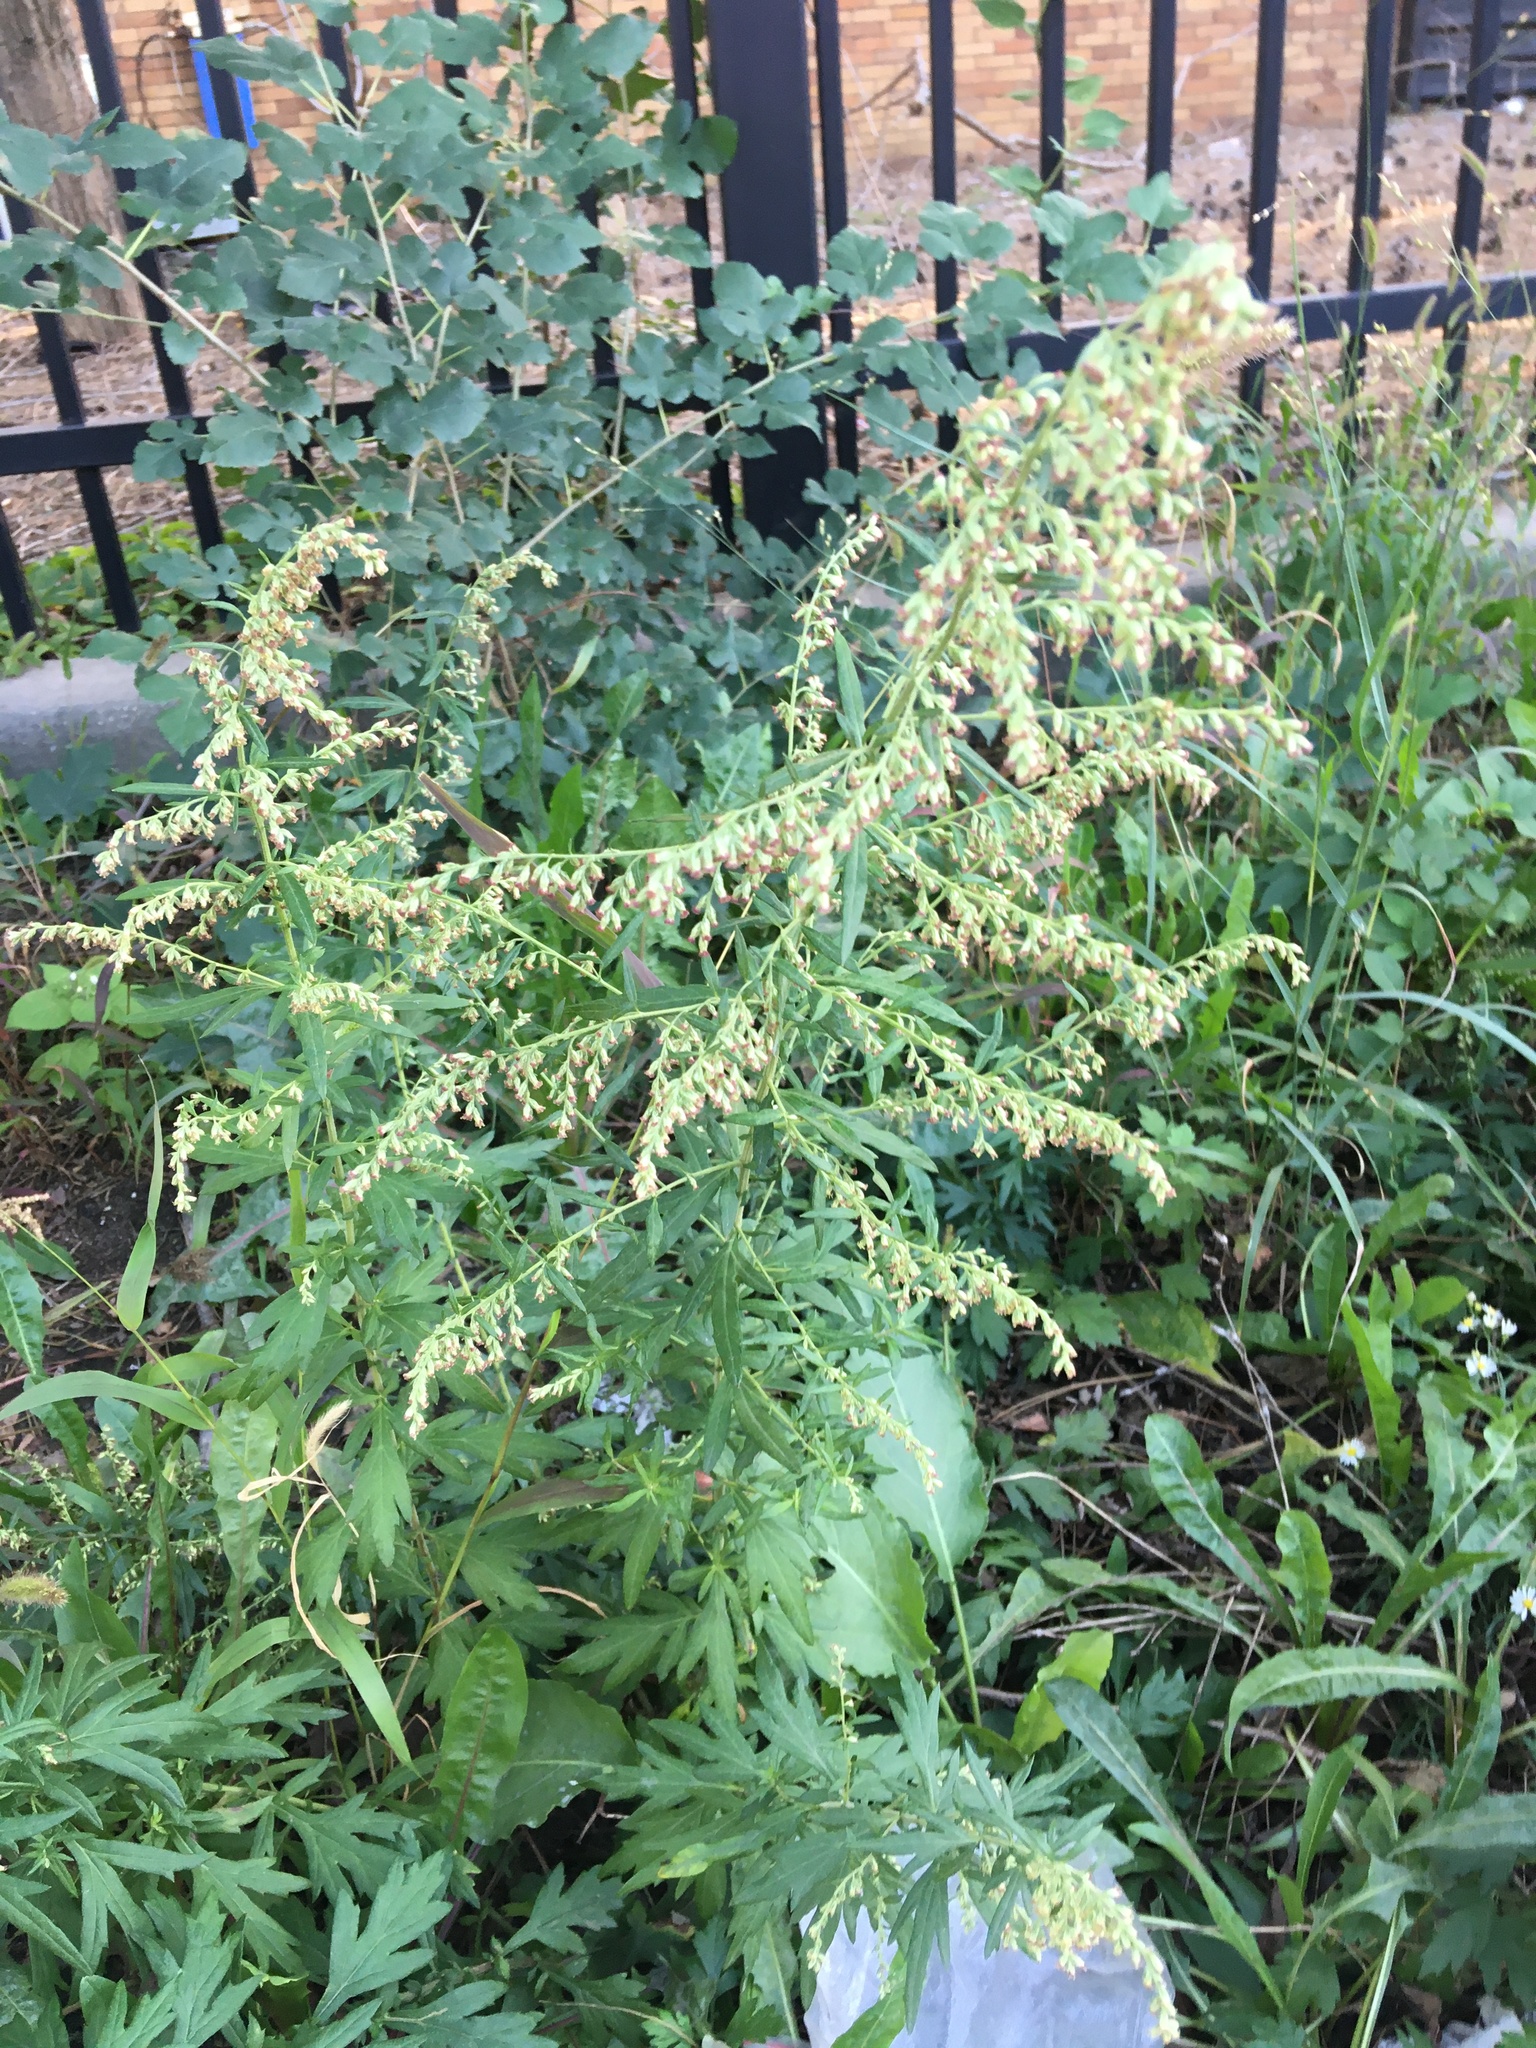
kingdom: Plantae
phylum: Tracheophyta
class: Magnoliopsida
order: Asterales
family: Asteraceae
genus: Artemisia
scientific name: Artemisia vulgaris
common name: Mugwort
